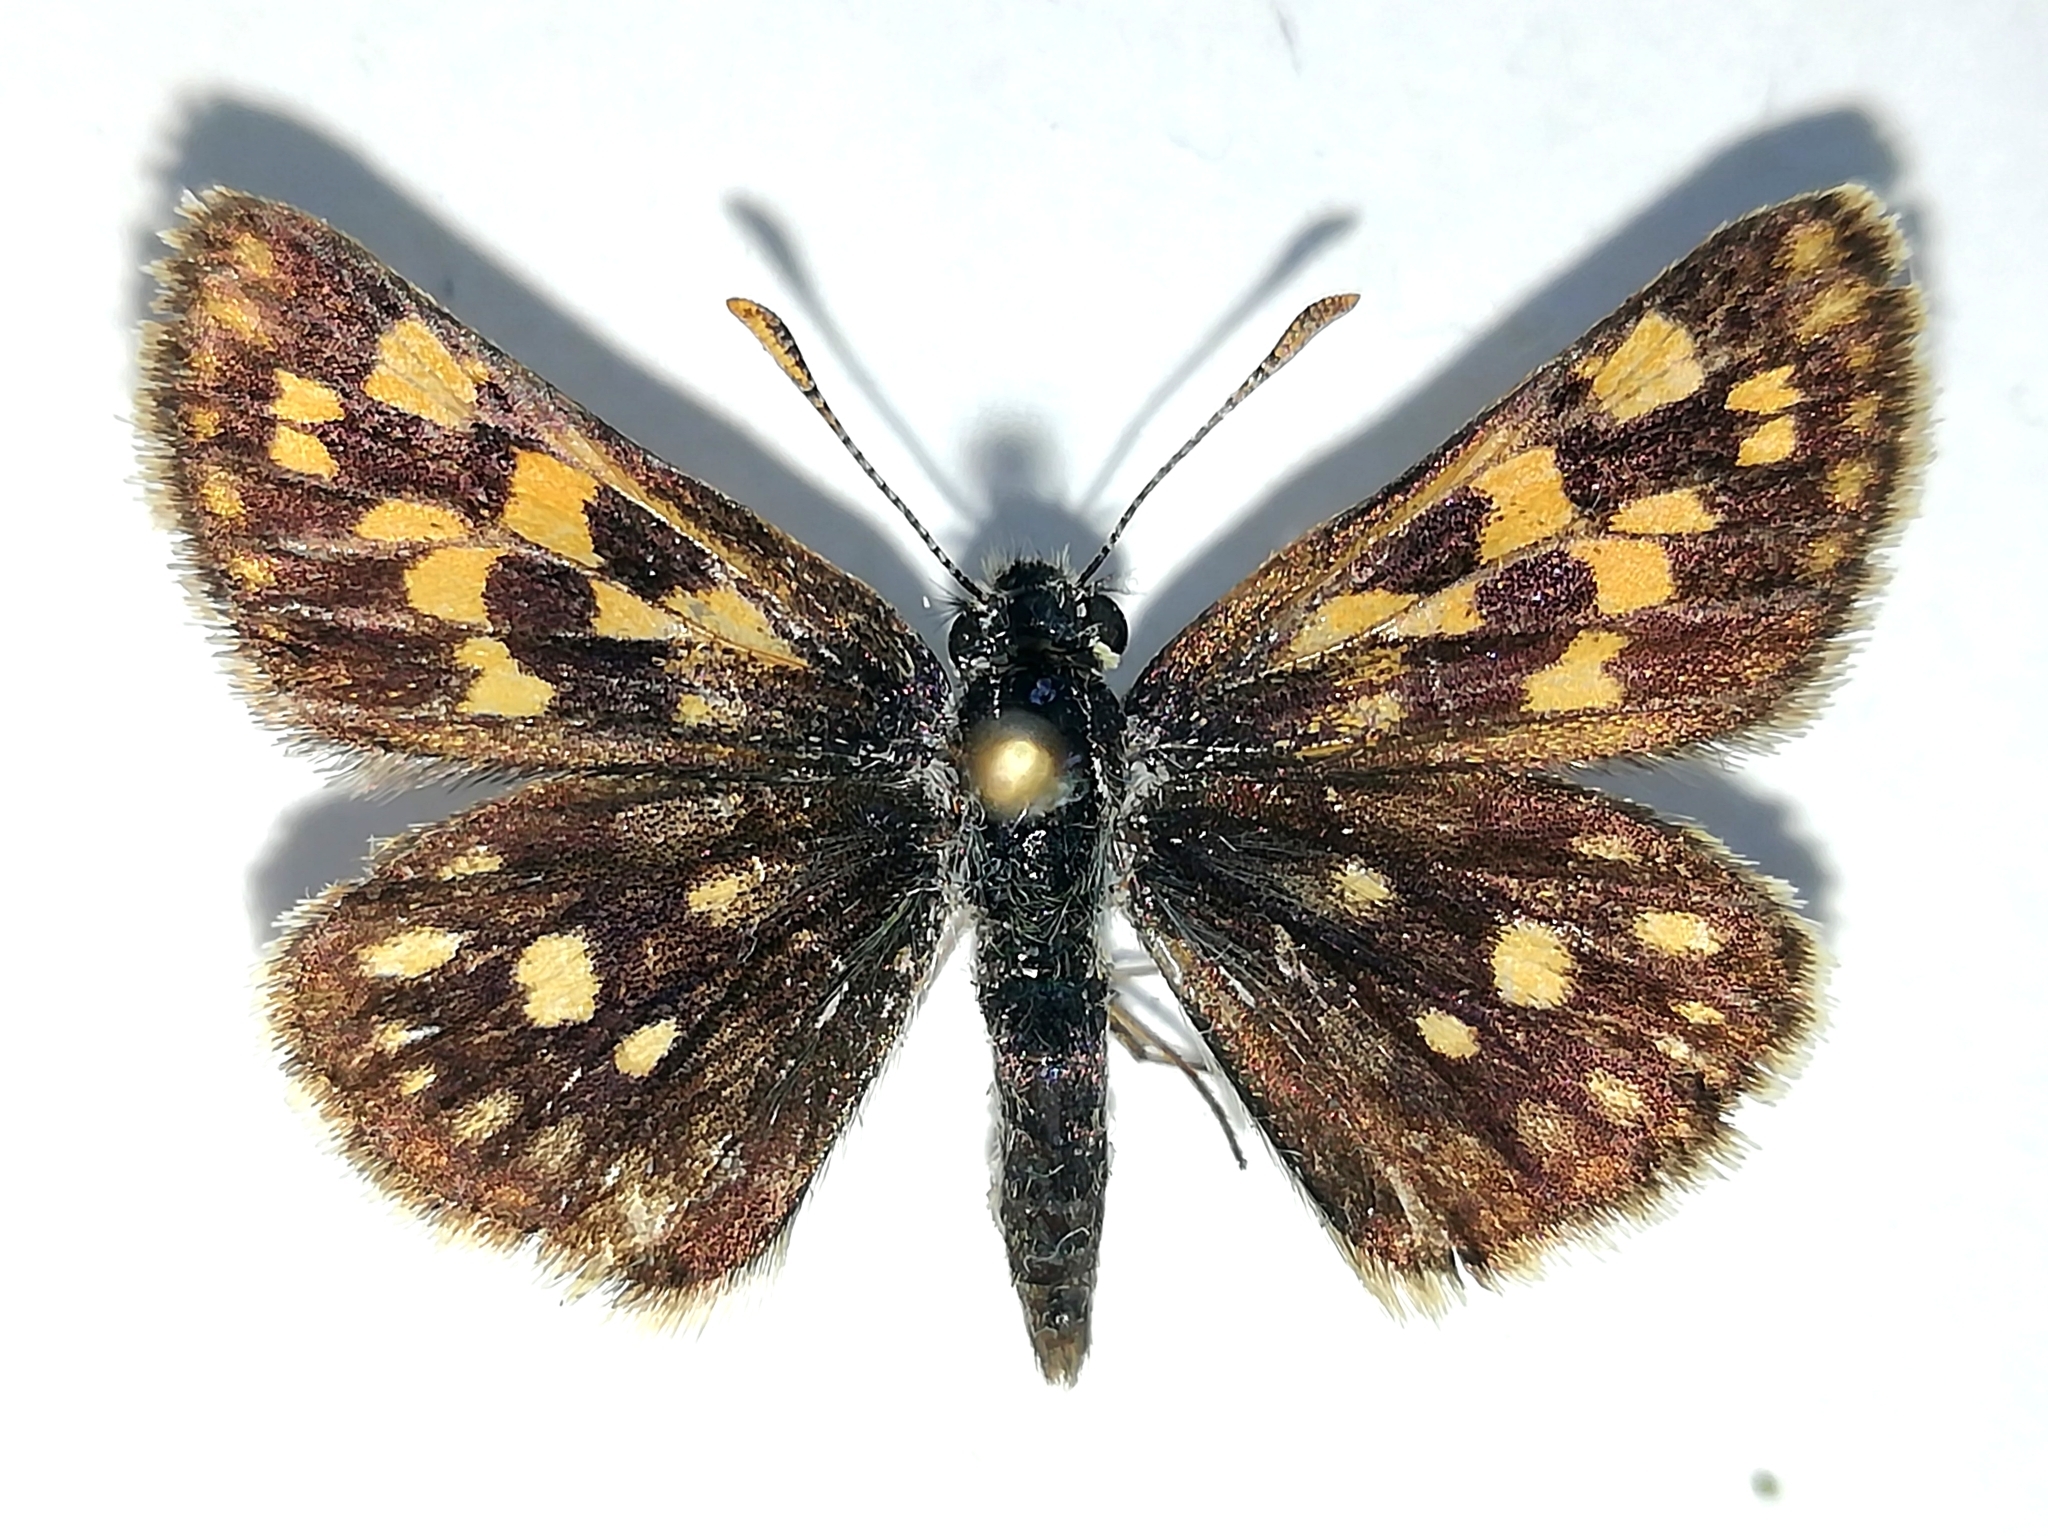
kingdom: Animalia
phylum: Arthropoda
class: Insecta
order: Lepidoptera
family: Hesperiidae
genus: Carterocephalus
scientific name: Carterocephalus palaemon
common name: Chequered skipper
